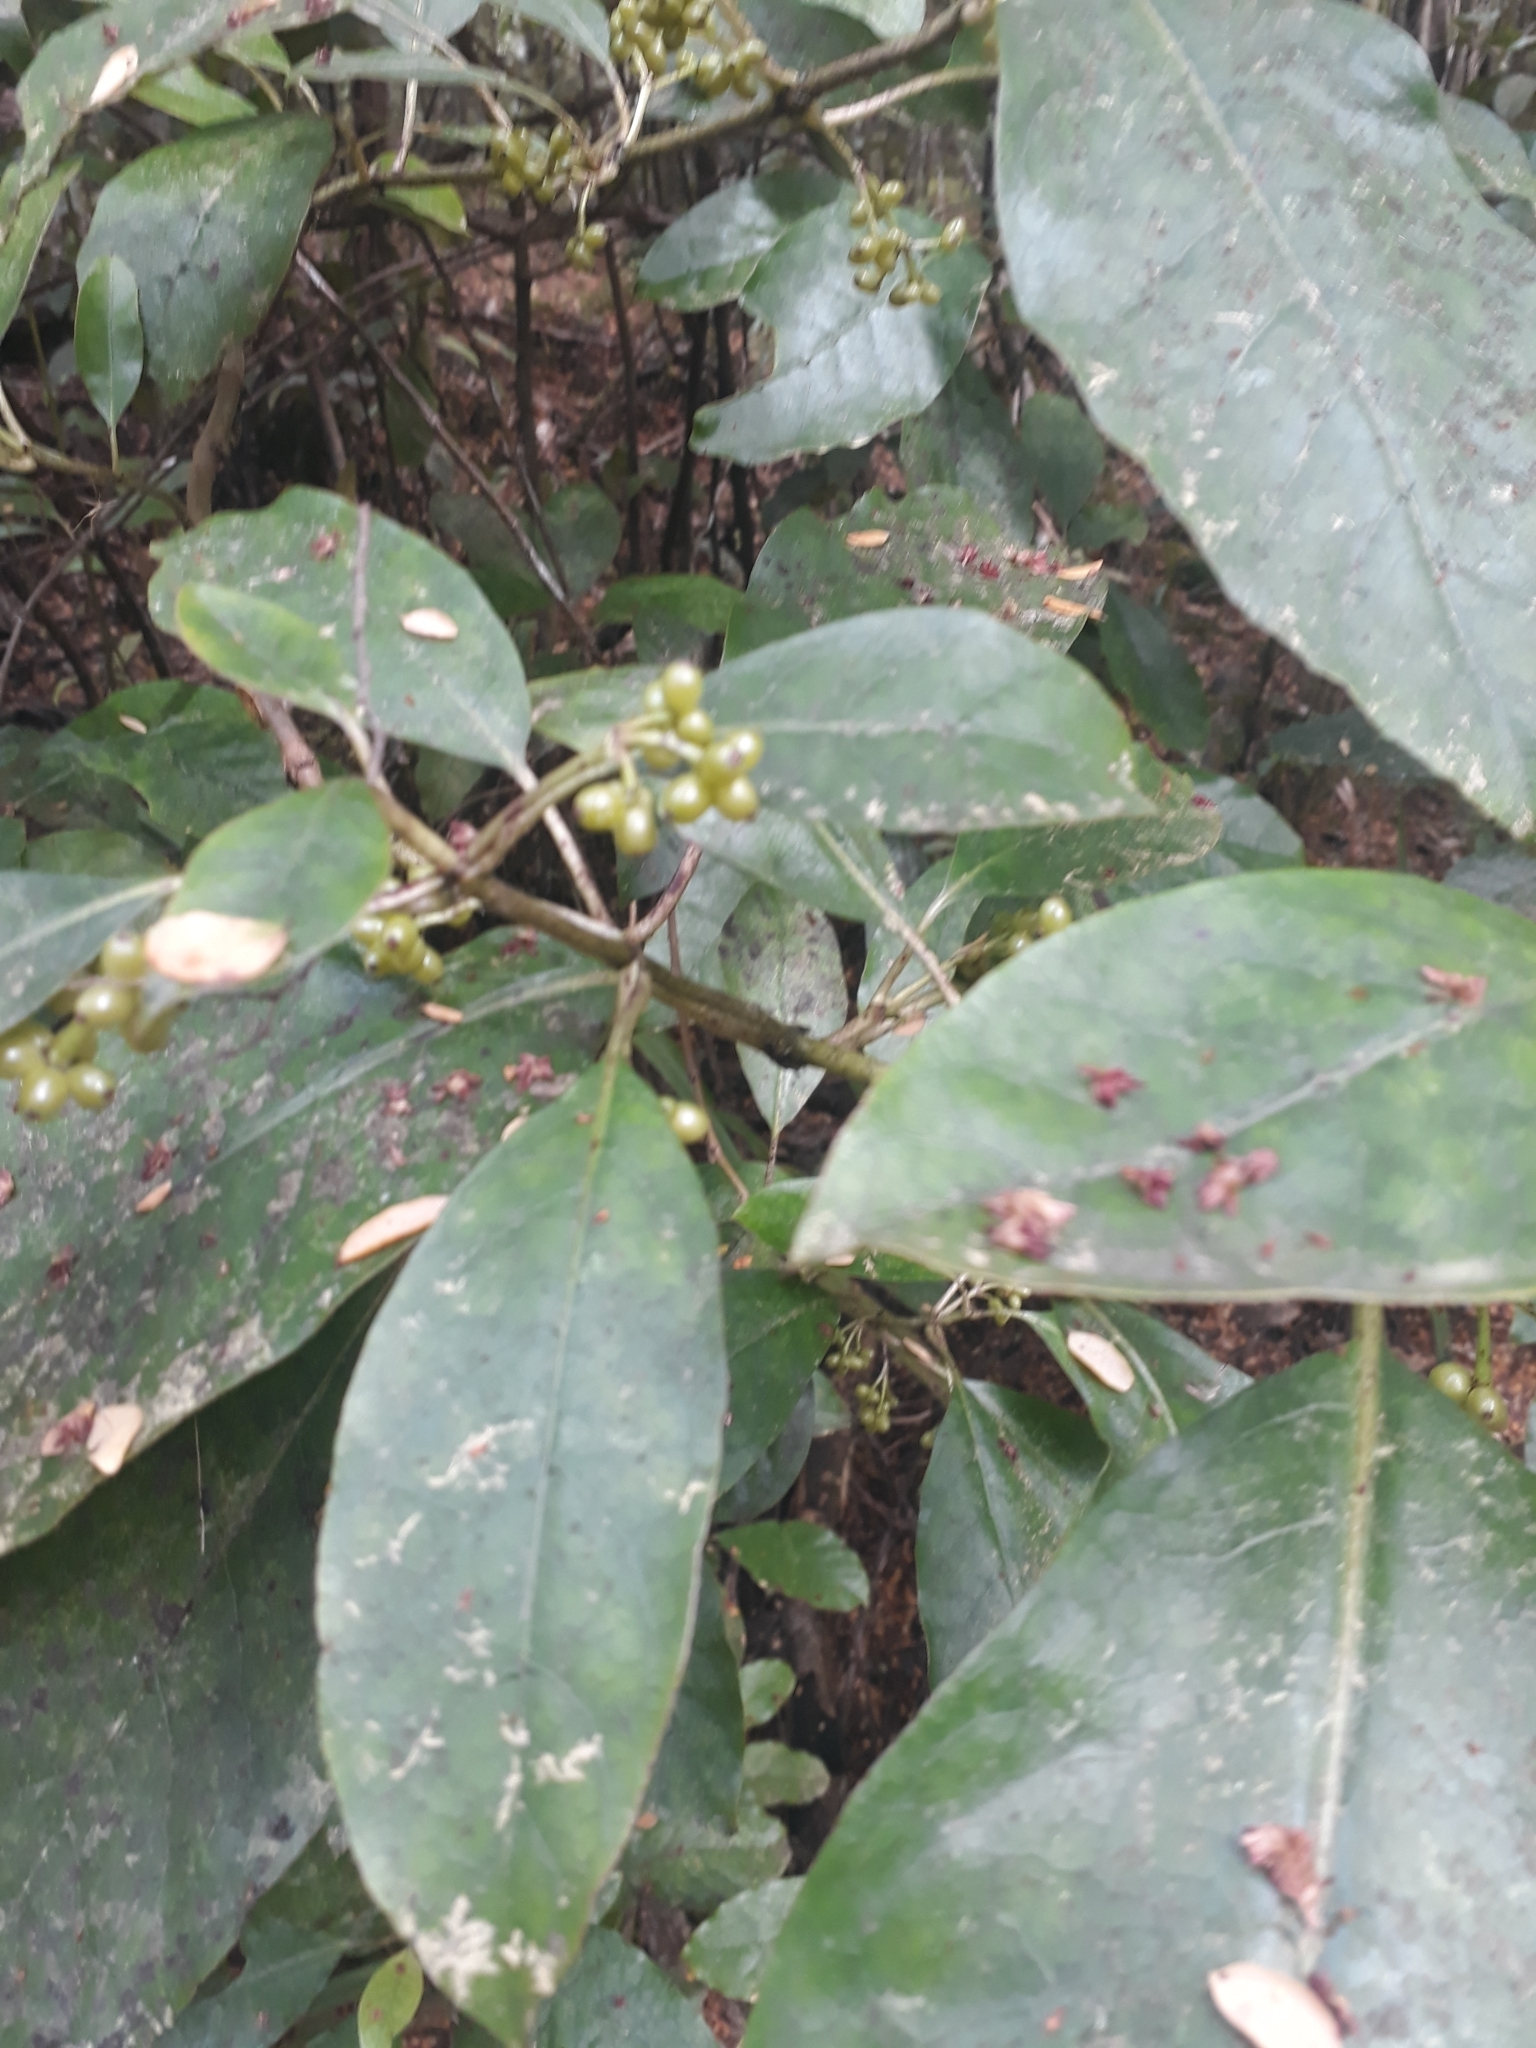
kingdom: Plantae
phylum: Tracheophyta
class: Magnoliopsida
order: Gentianales
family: Rubiaceae
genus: Coprosma
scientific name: Coprosma autumnalis
